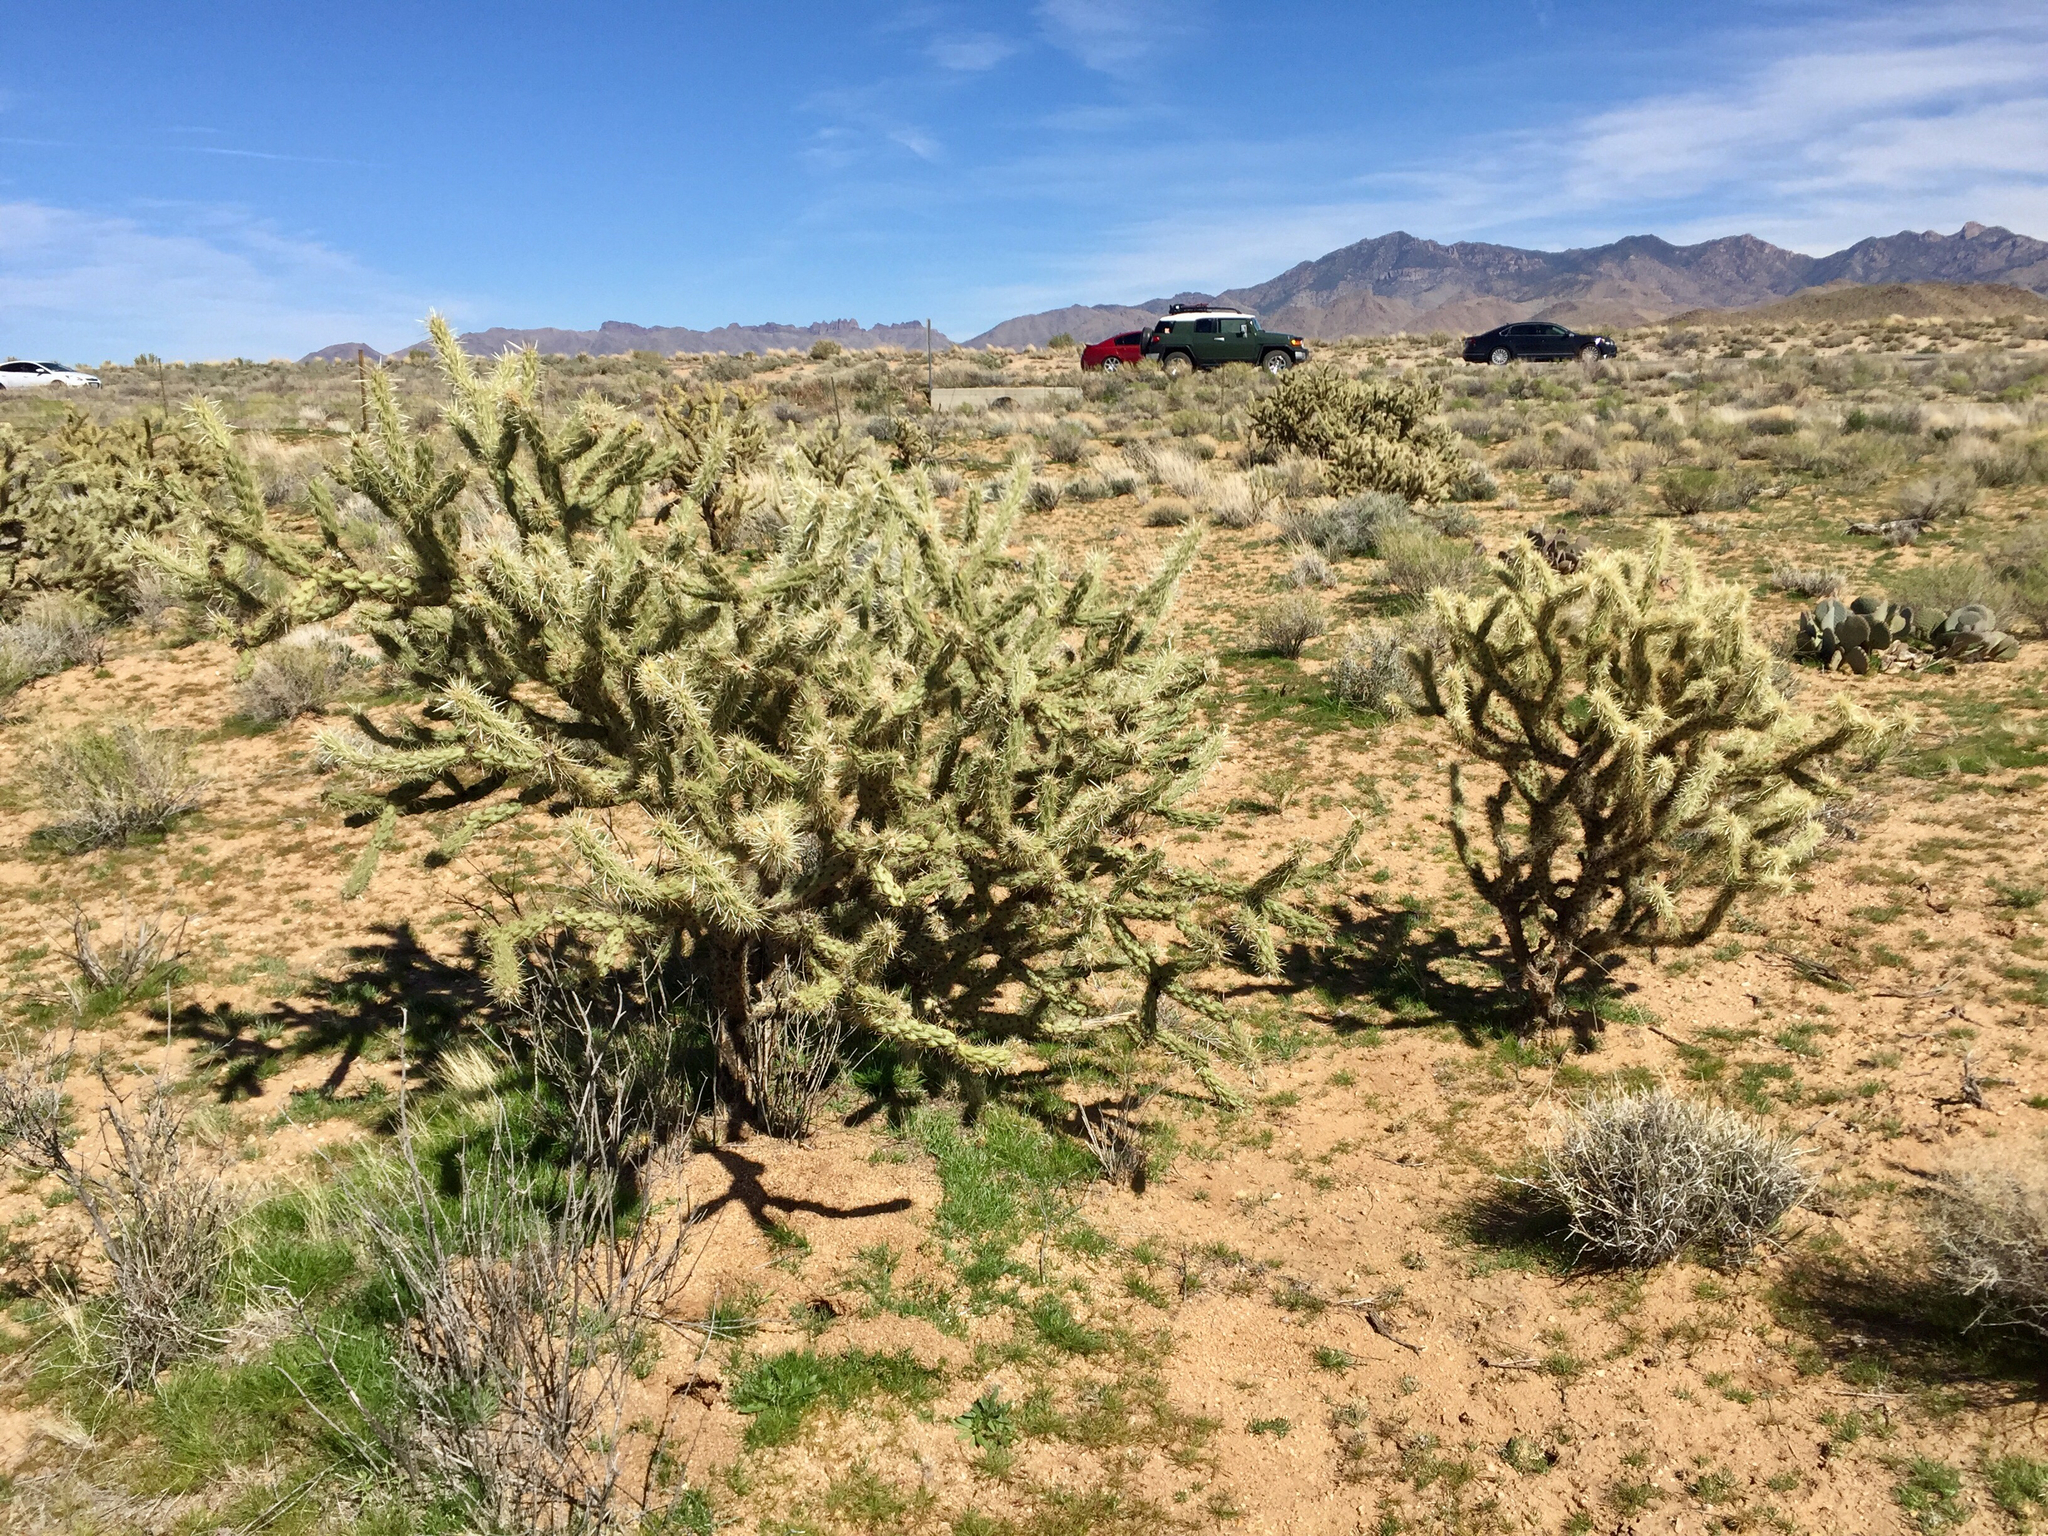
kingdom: Plantae
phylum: Tracheophyta
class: Magnoliopsida
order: Caryophyllales
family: Cactaceae
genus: Cylindropuntia
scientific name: Cylindropuntia acanthocarpa
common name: Buckhorn cholla
